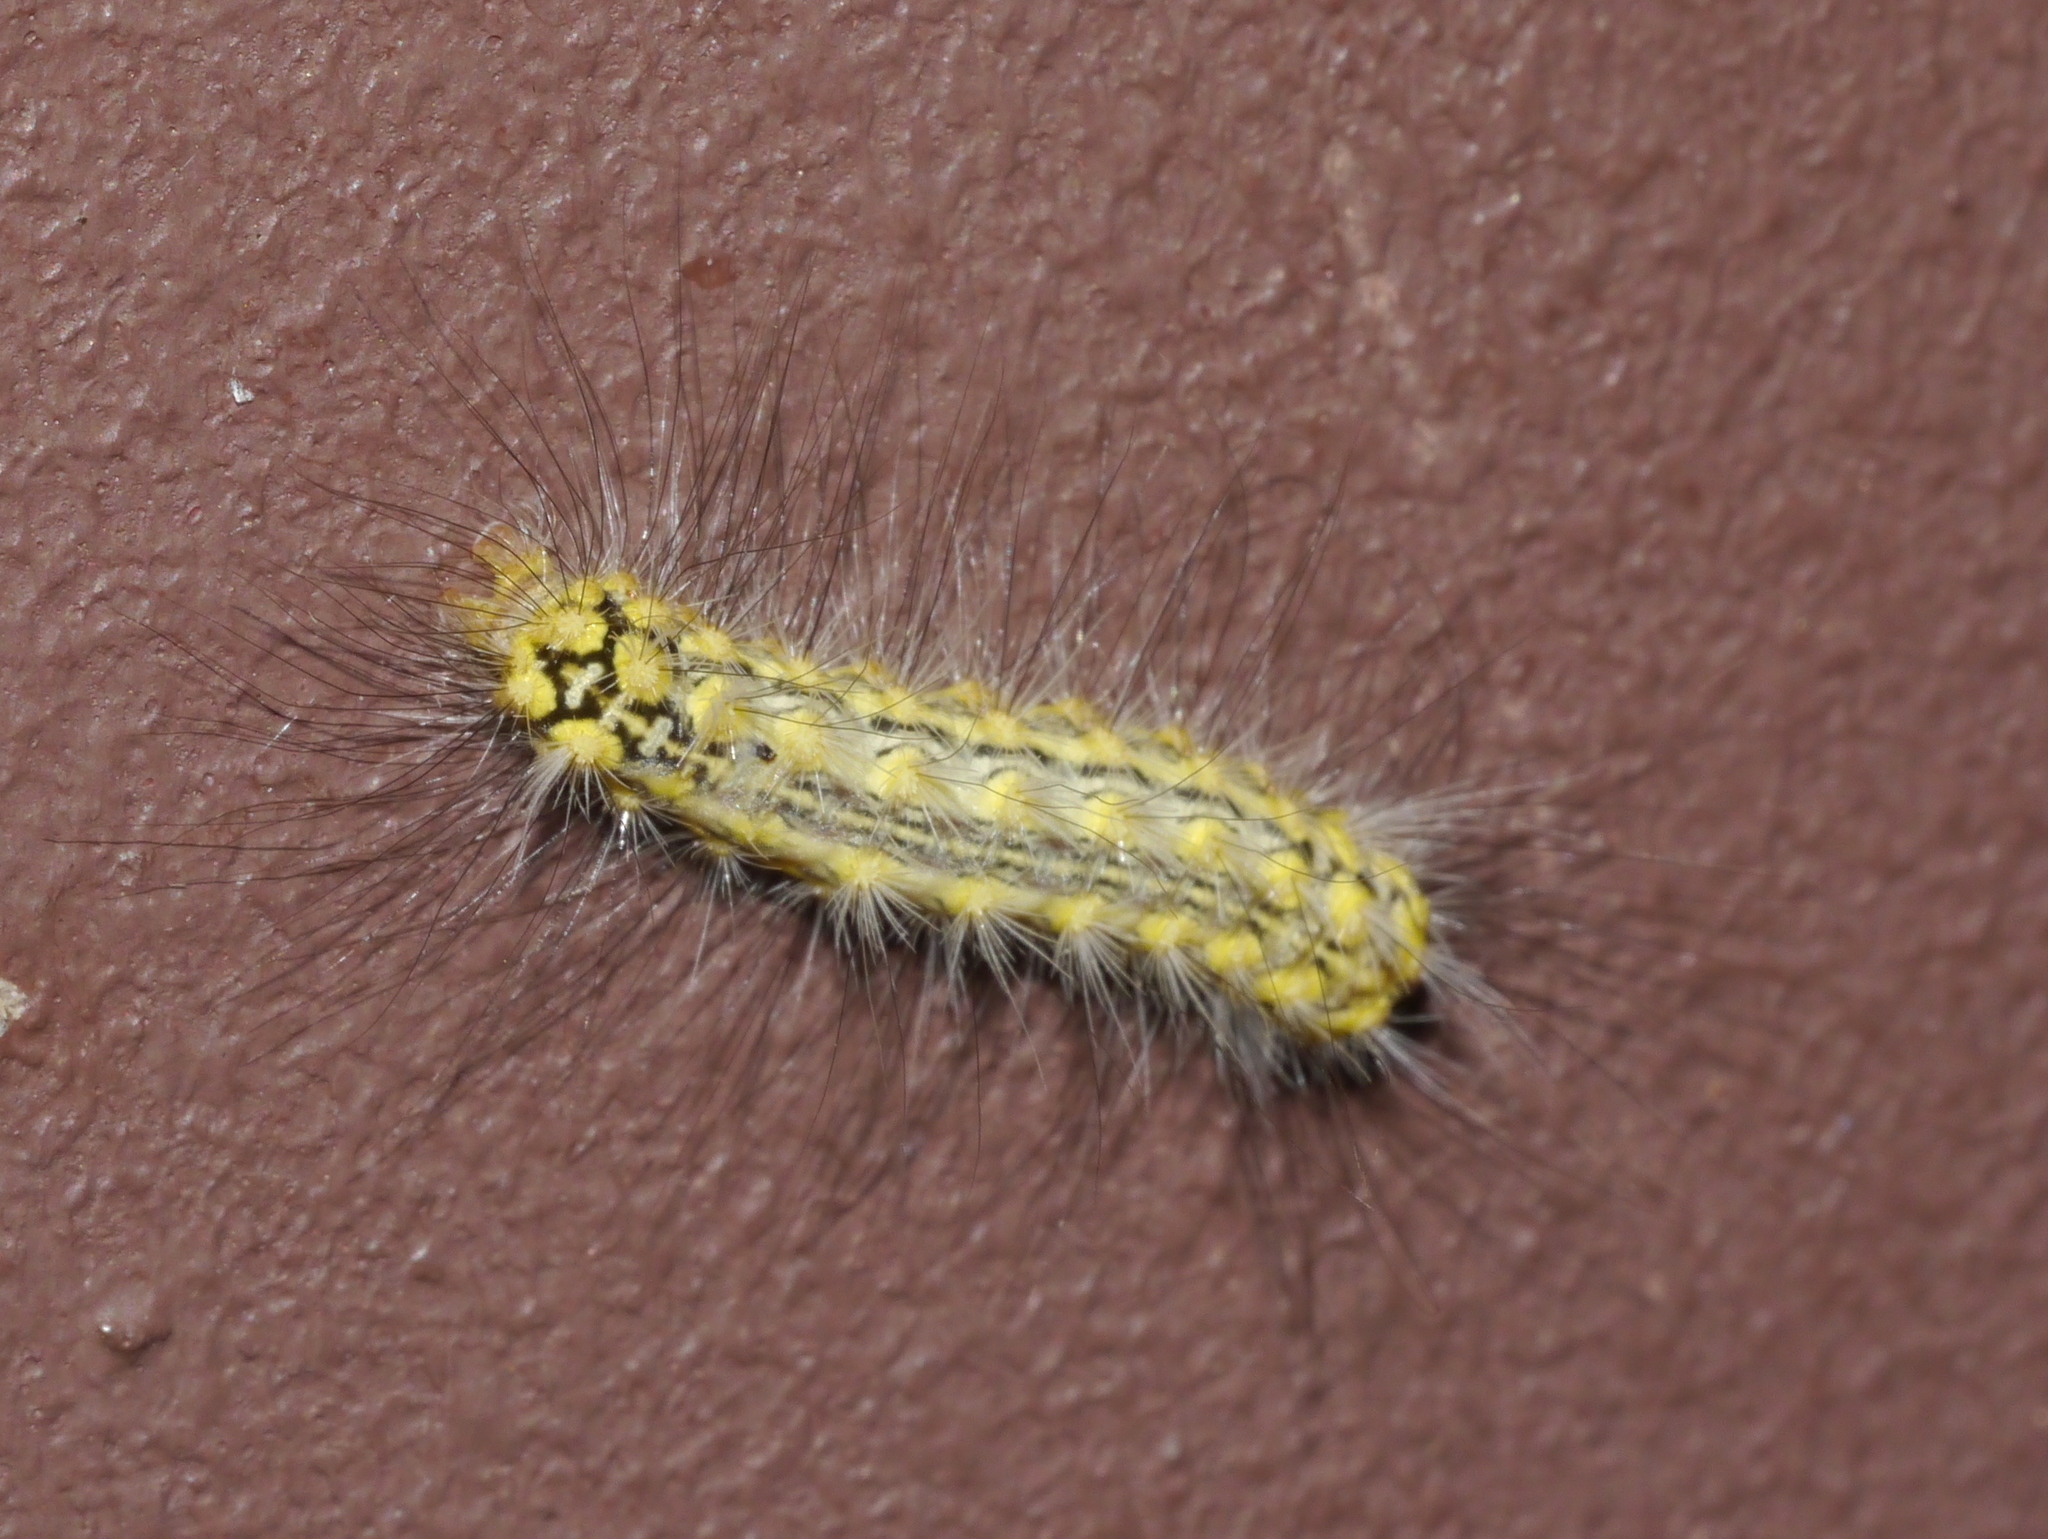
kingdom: Animalia
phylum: Arthropoda
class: Insecta
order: Lepidoptera
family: Megalopygidae
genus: Norape
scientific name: Norape tener
